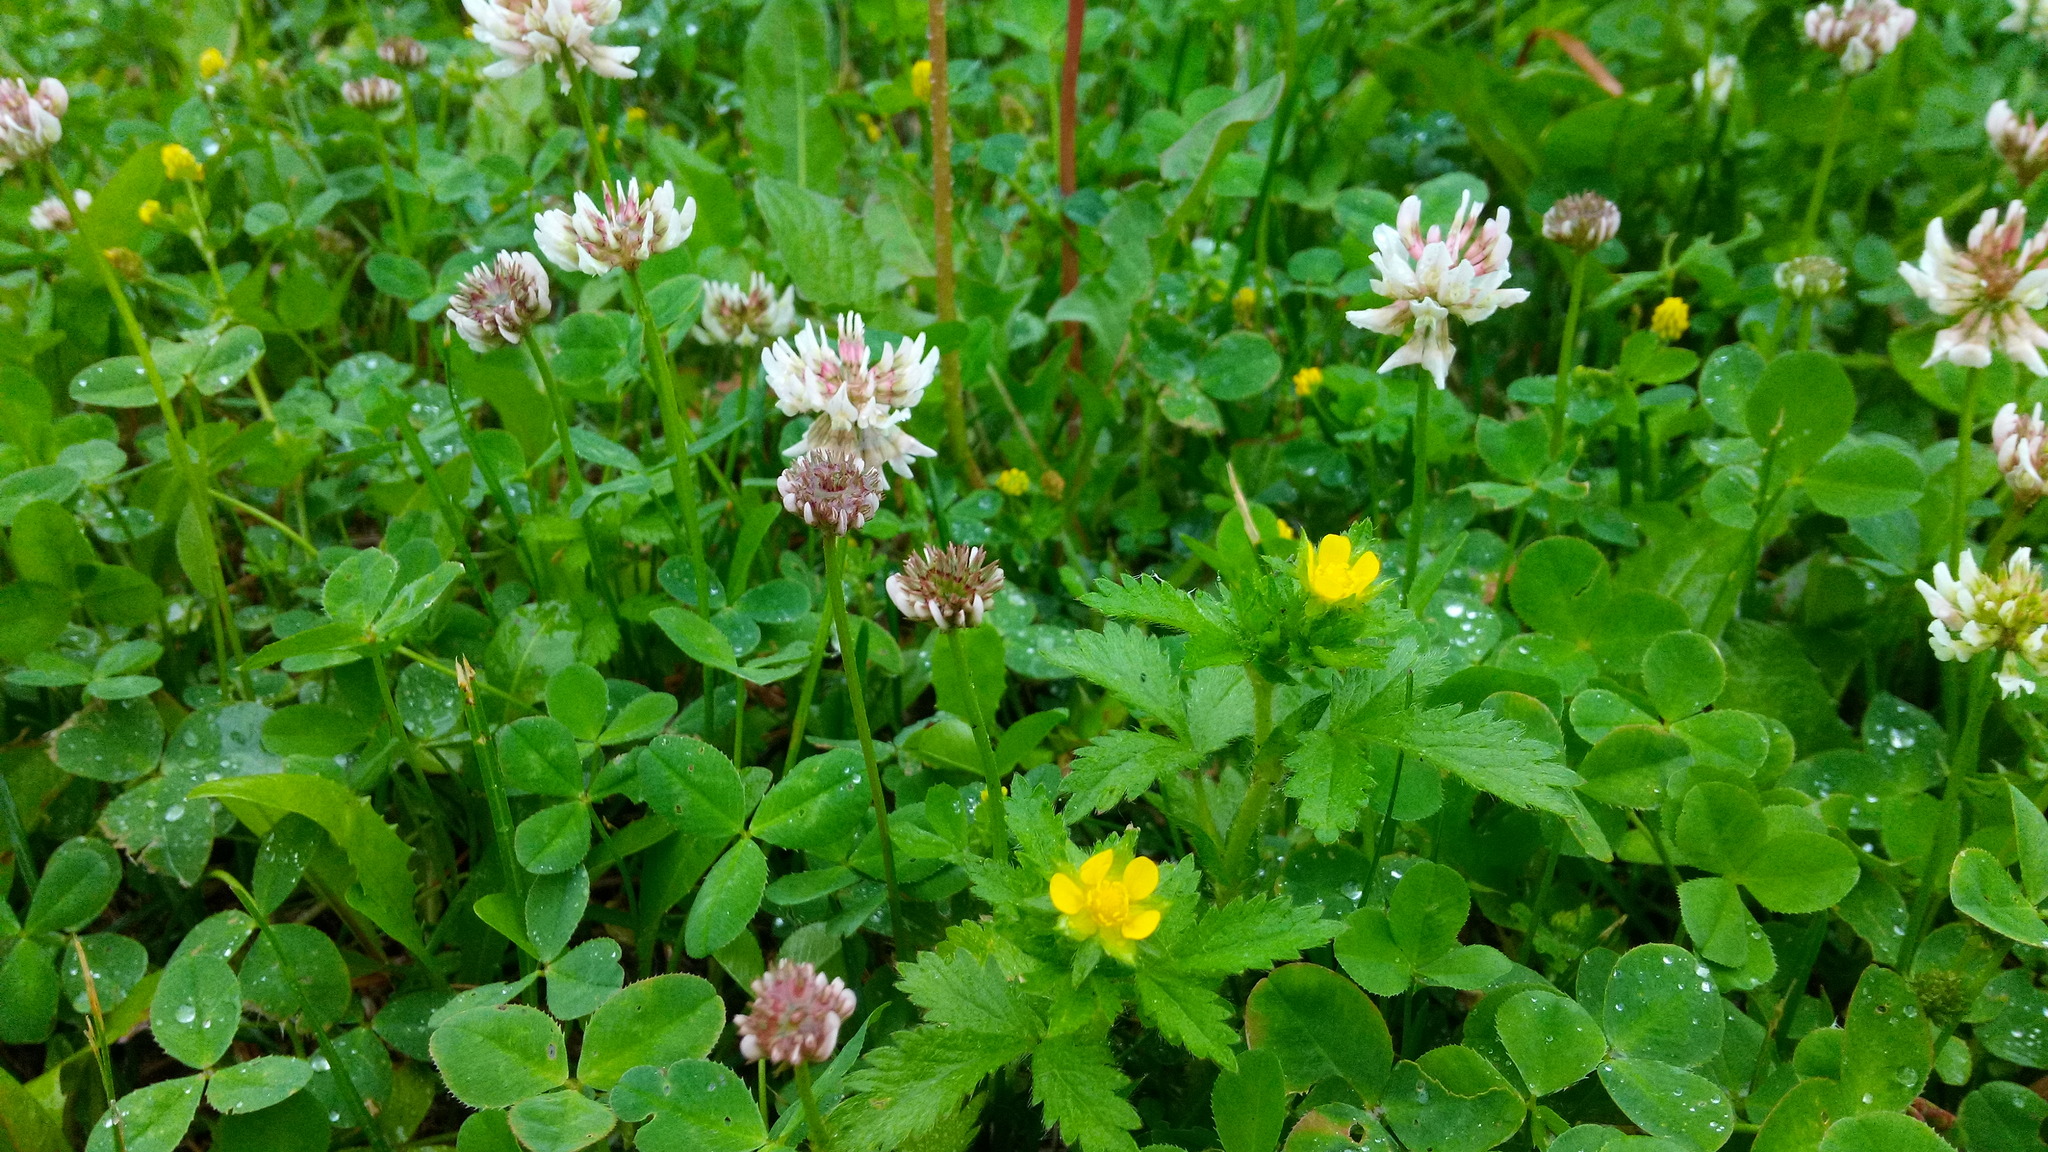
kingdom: Plantae
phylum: Tracheophyta
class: Magnoliopsida
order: Rosales
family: Rosaceae
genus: Potentilla
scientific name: Potentilla norvegica
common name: Ternate-leaved cinquefoil
